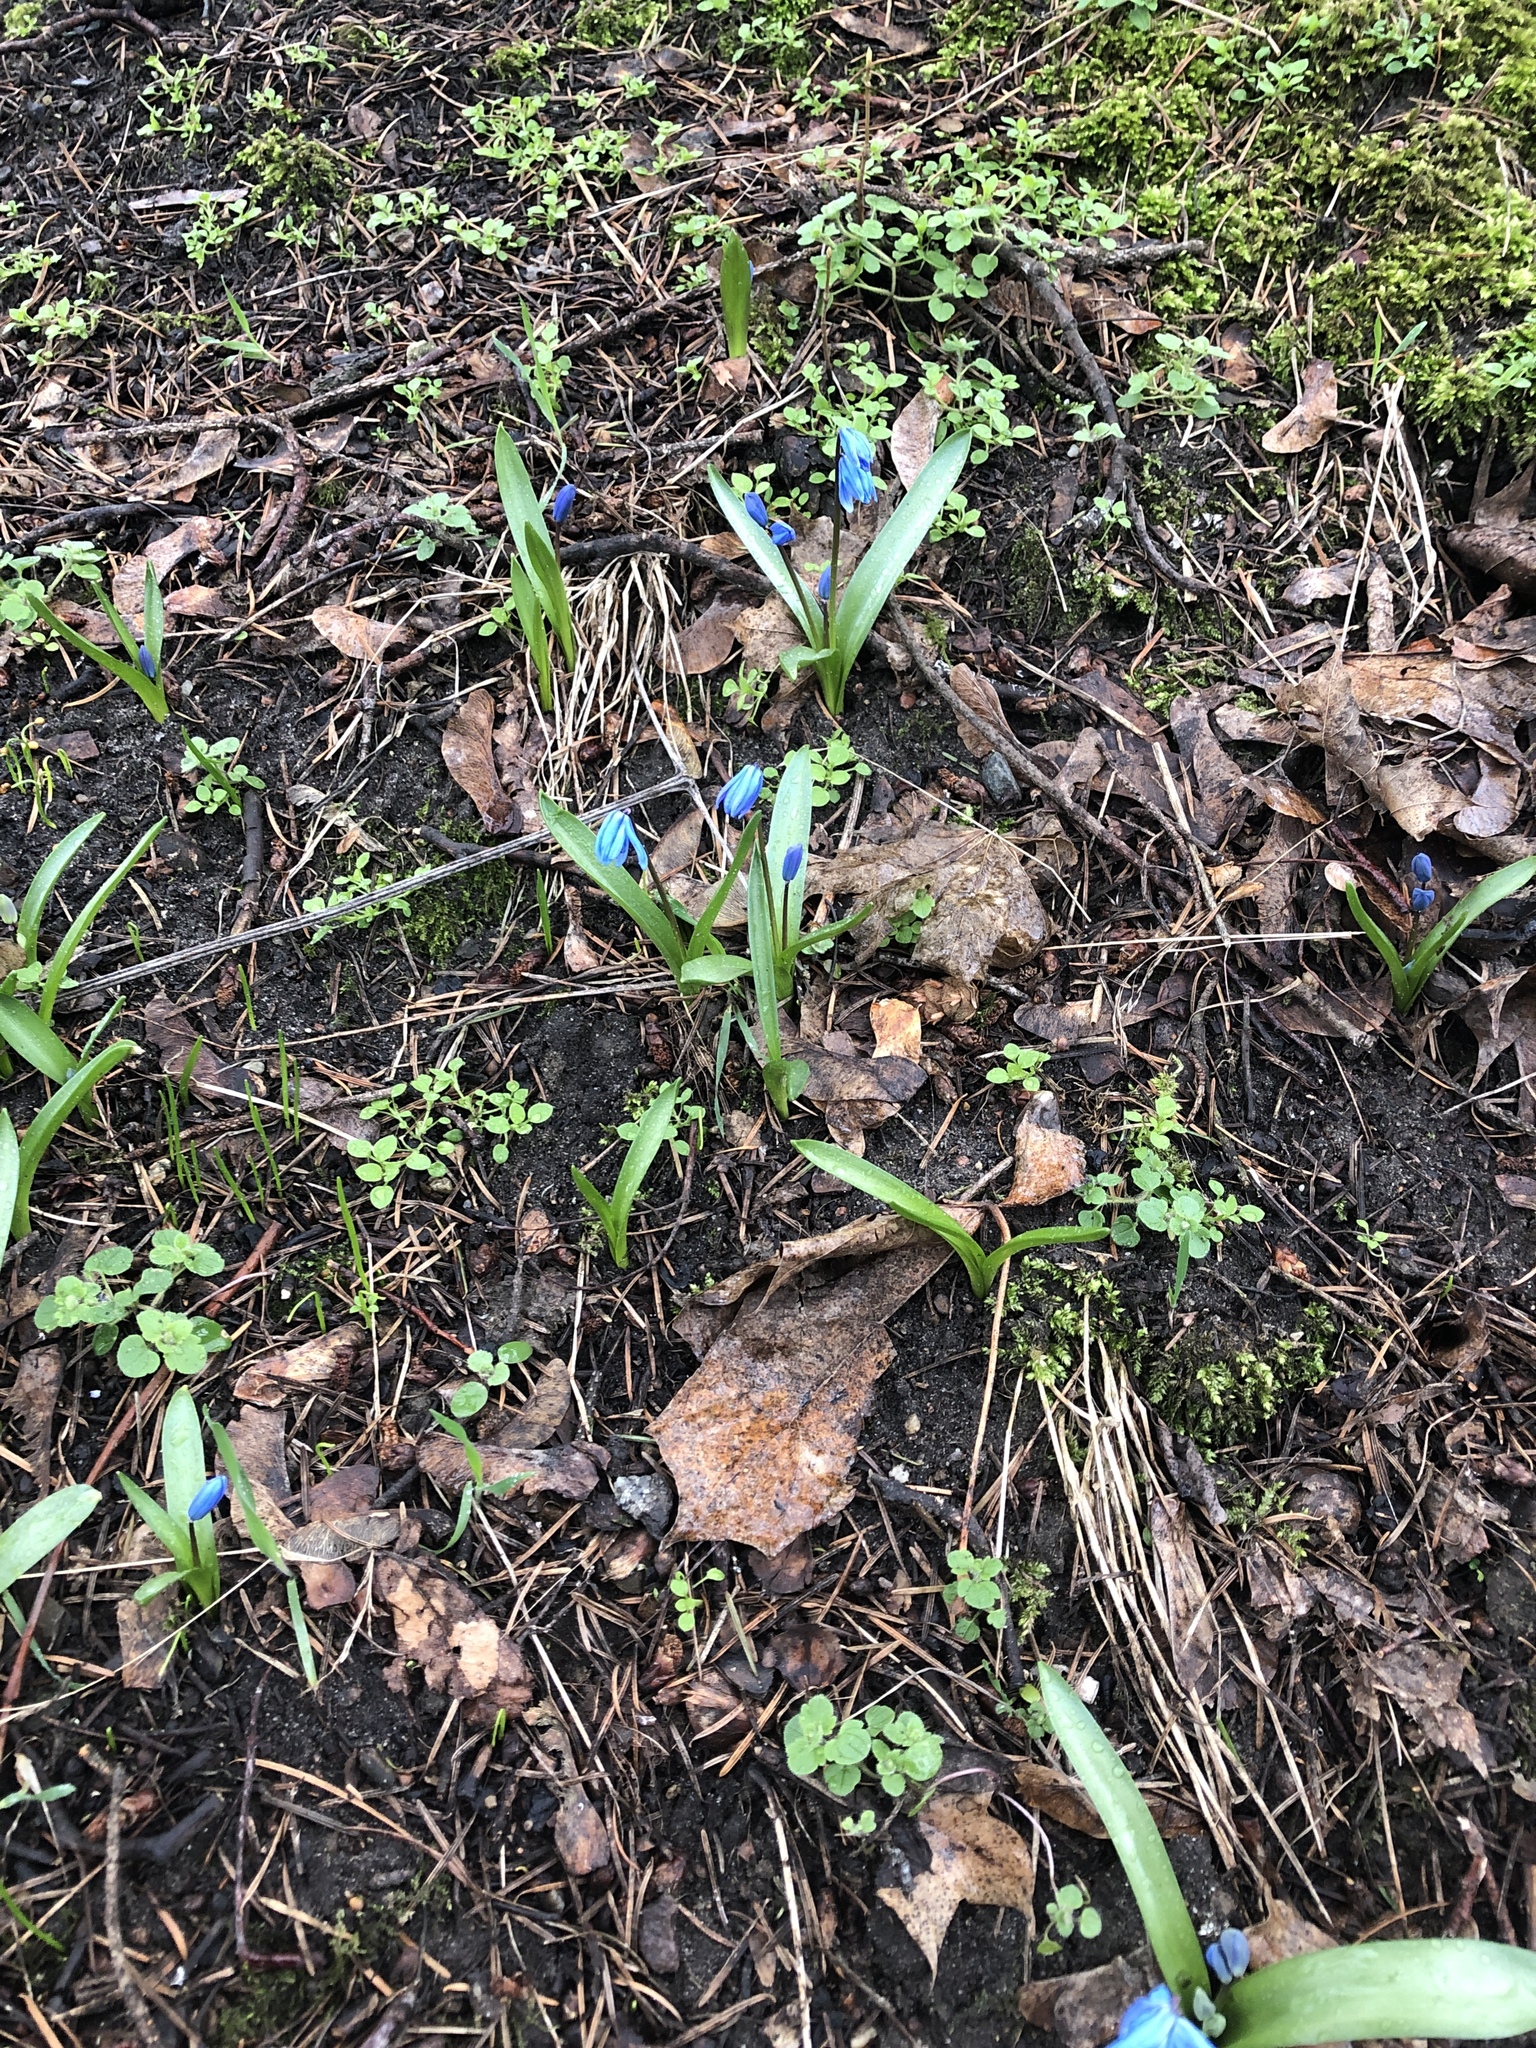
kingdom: Plantae
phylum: Tracheophyta
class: Liliopsida
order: Asparagales
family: Asparagaceae
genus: Scilla
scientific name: Scilla siberica
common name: Siberian squill
